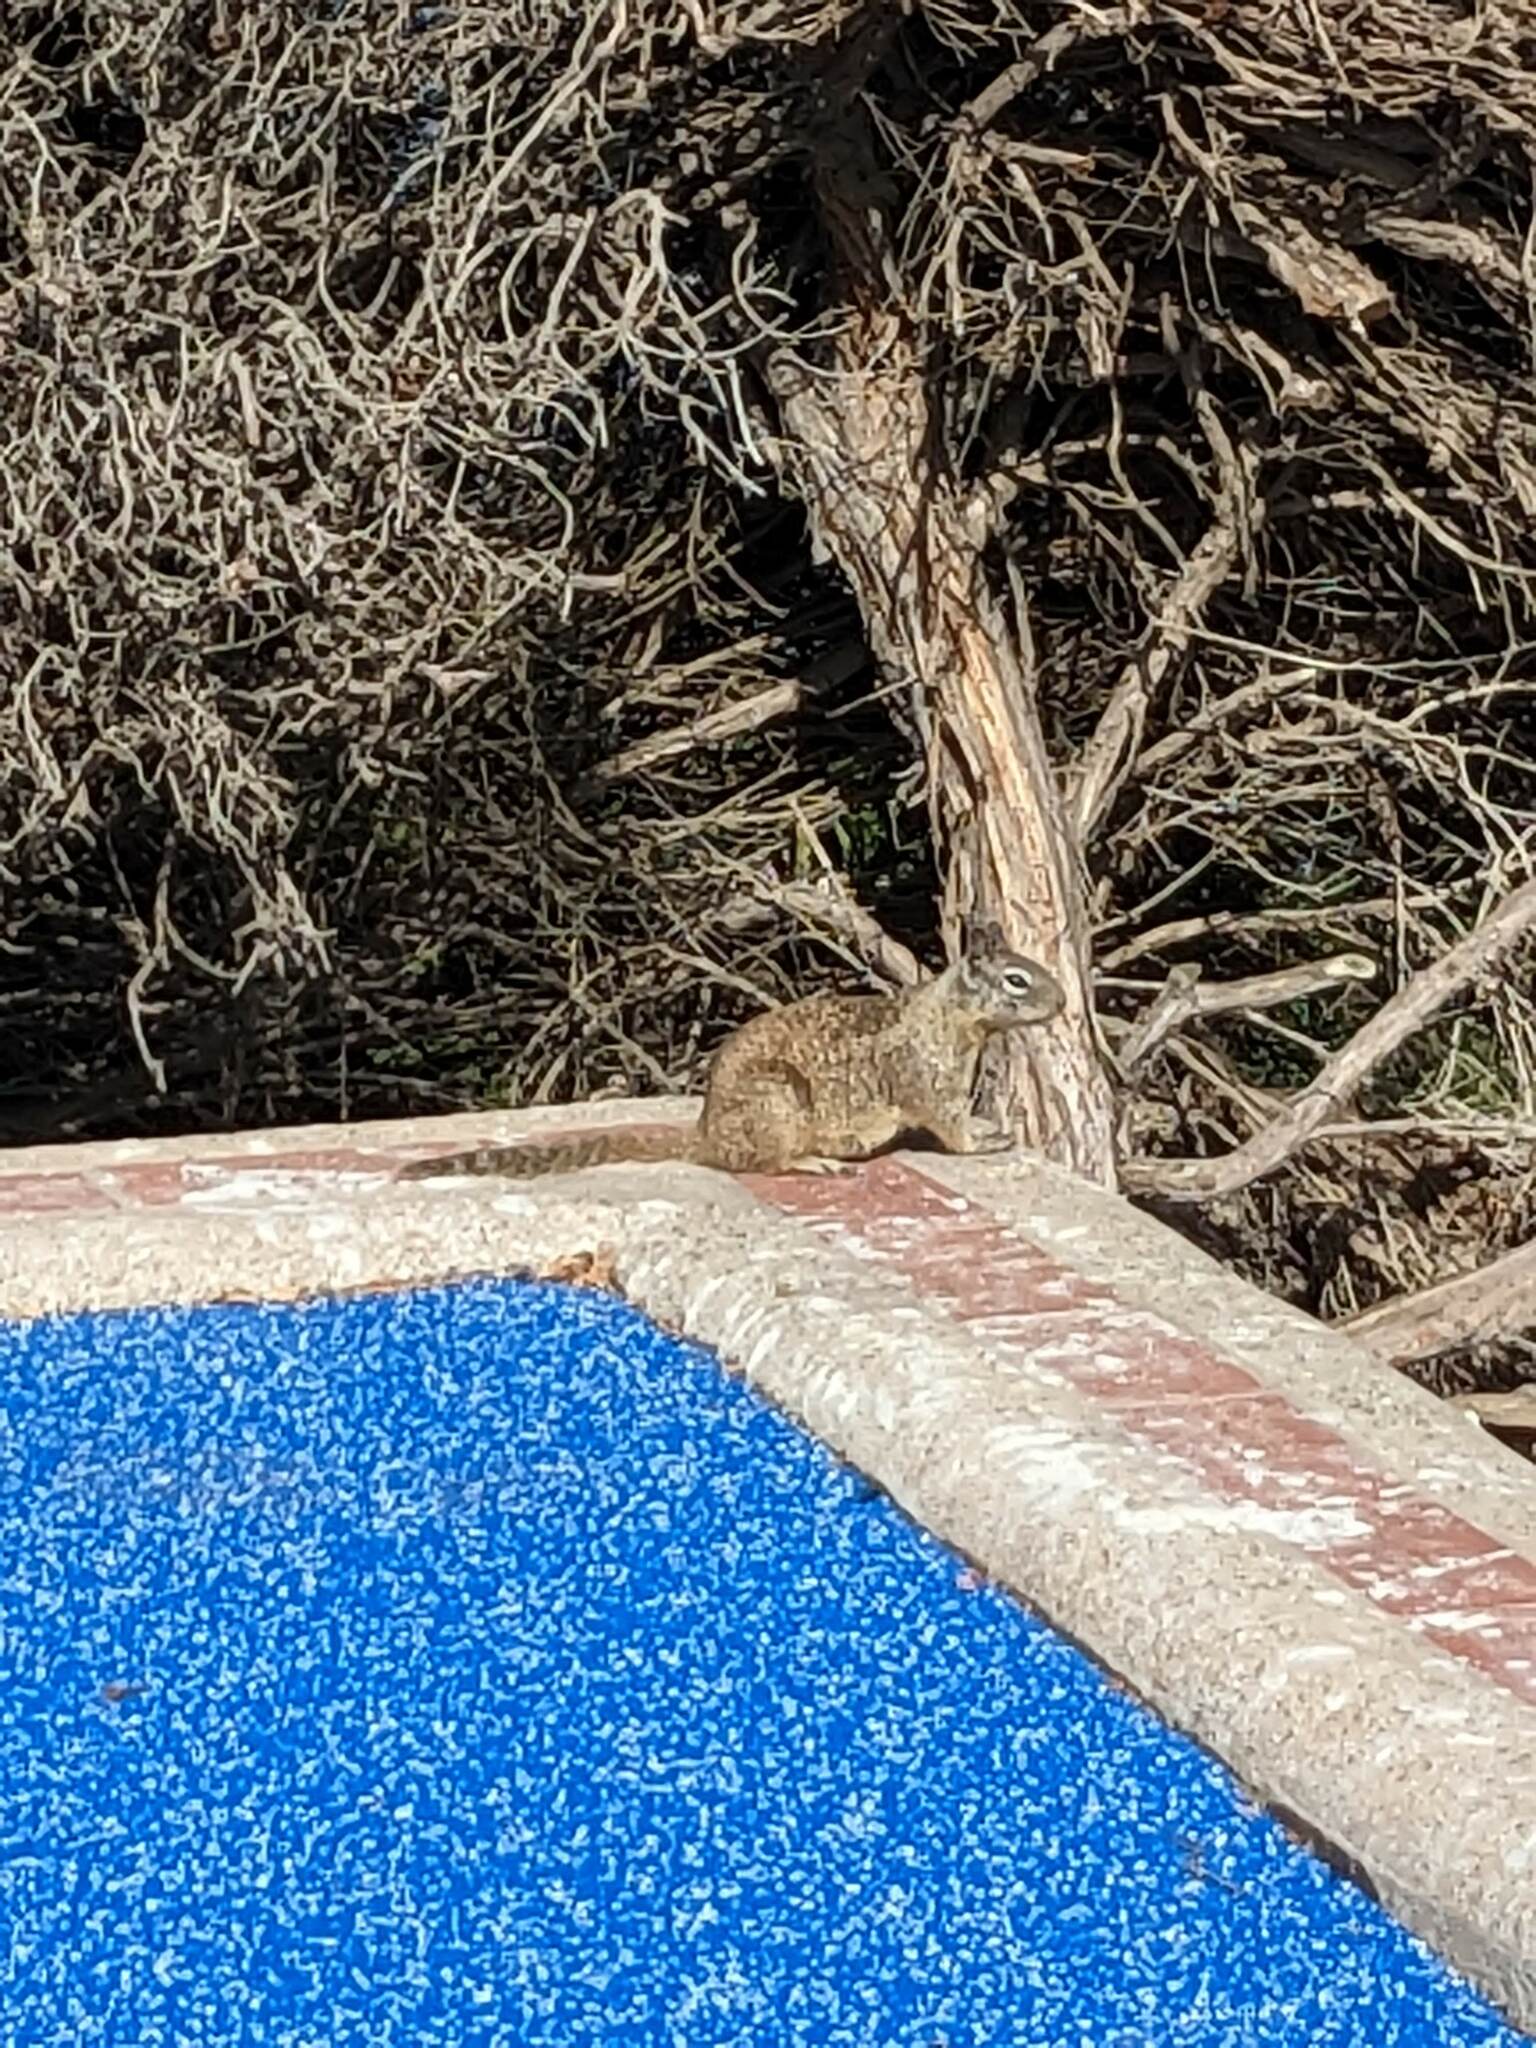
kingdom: Animalia
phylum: Chordata
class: Mammalia
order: Rodentia
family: Sciuridae
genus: Otospermophilus
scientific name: Otospermophilus beecheyi
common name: California ground squirrel
